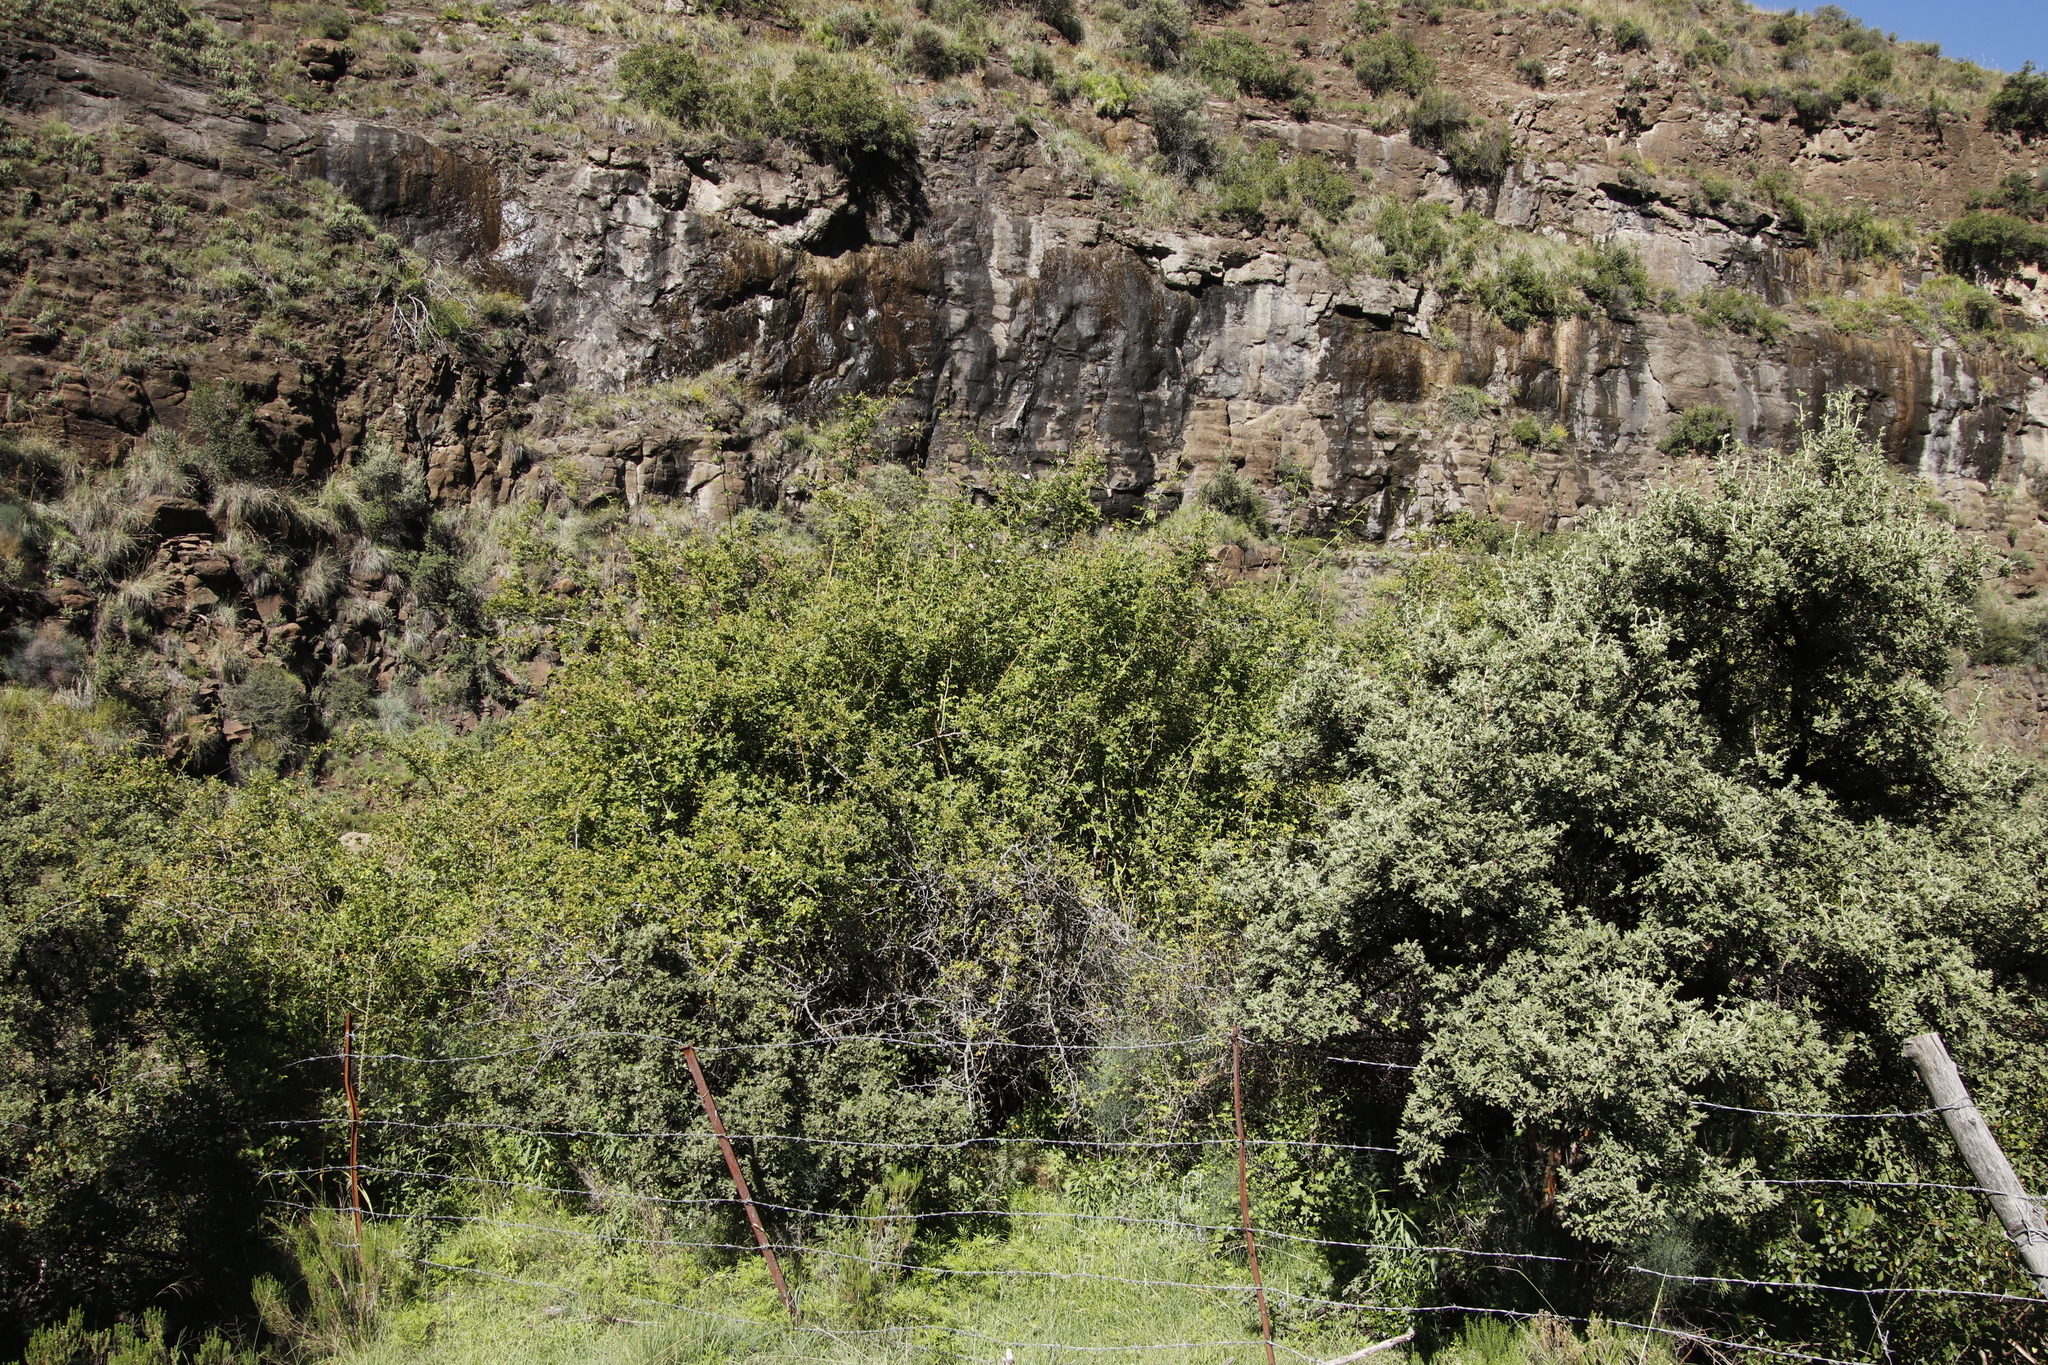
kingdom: Plantae
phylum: Tracheophyta
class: Magnoliopsida
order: Rosales
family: Rosaceae
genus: Rosa
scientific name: Rosa rubiginosa
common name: Sweet-briar
